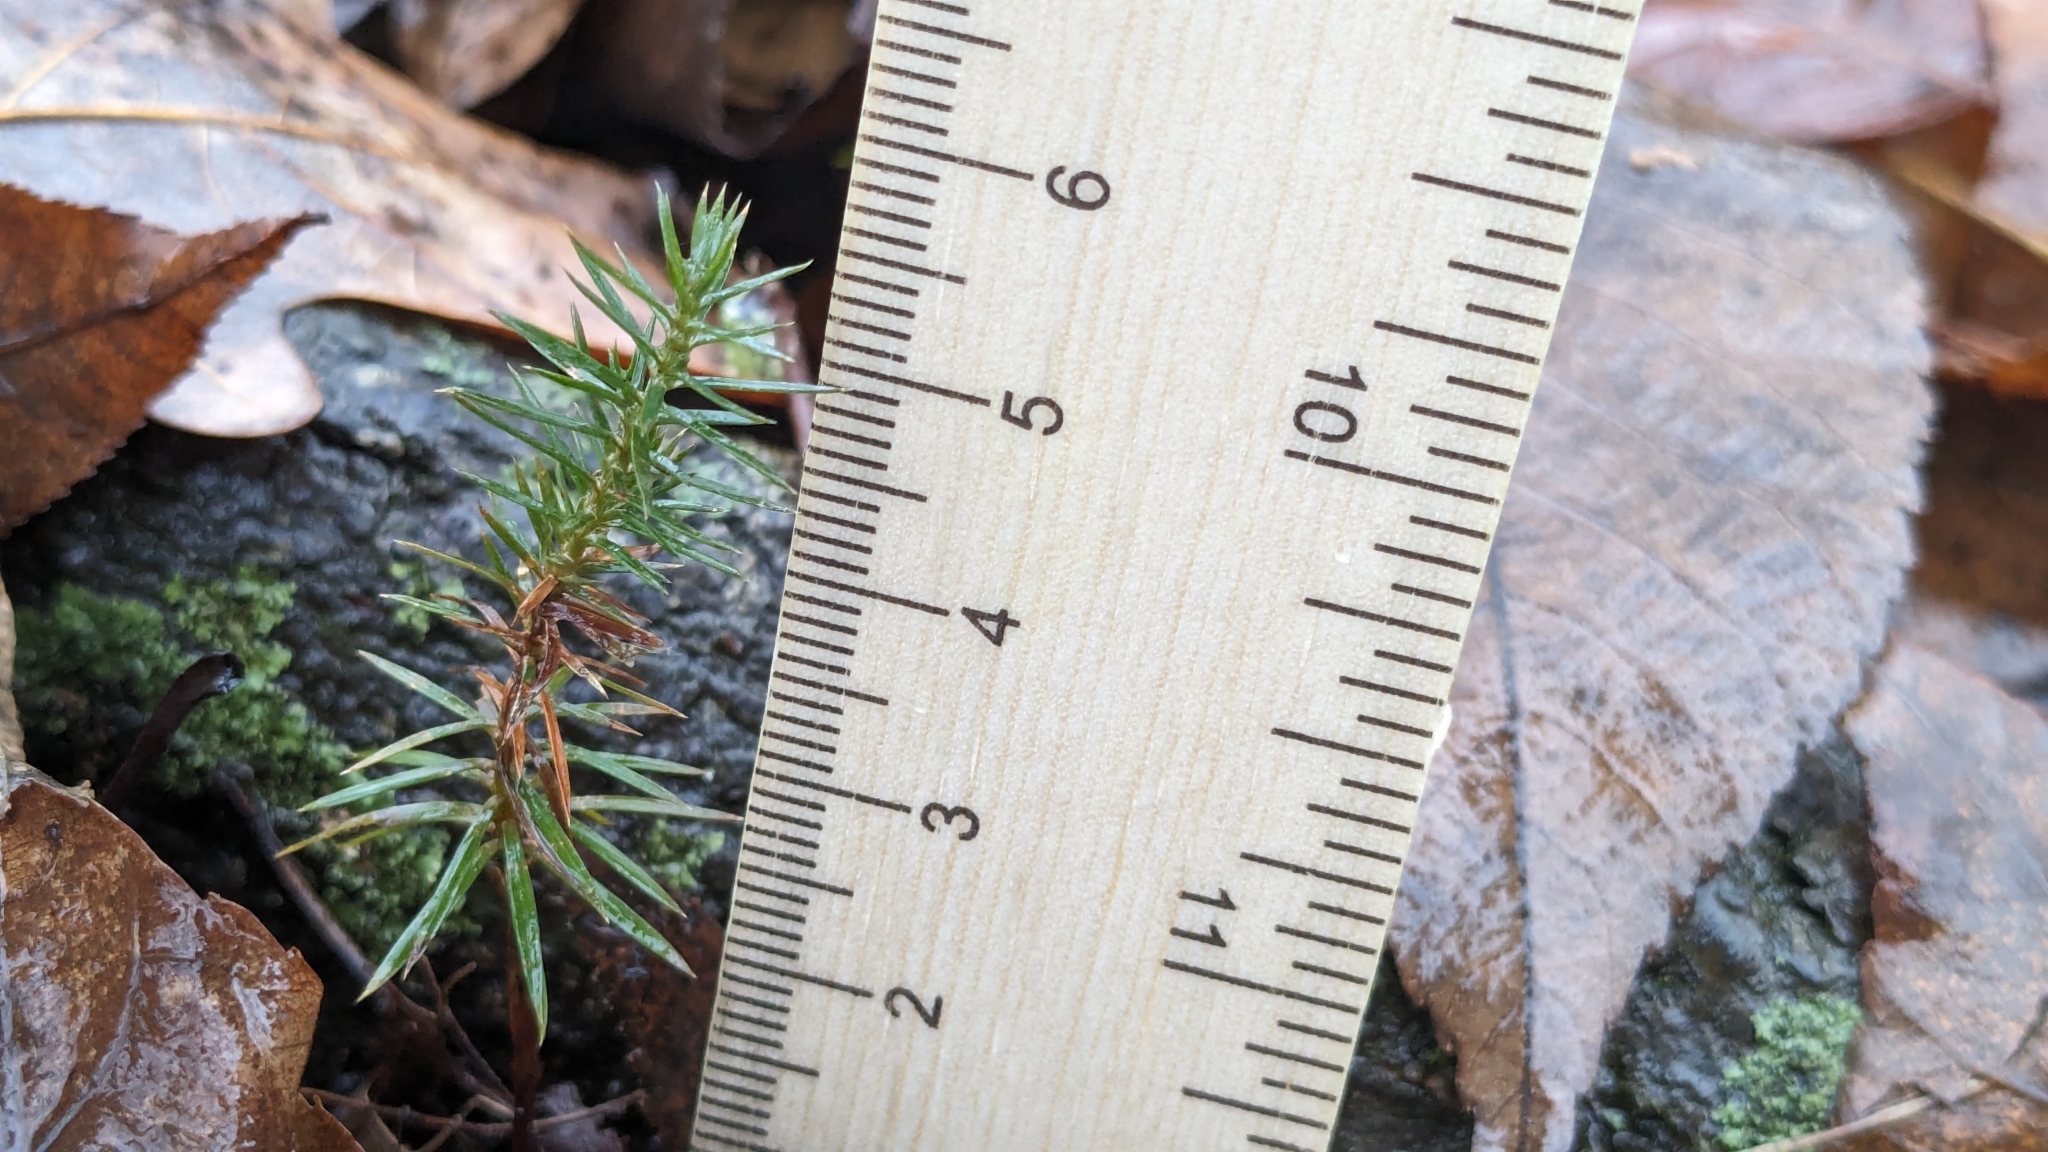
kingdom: Plantae
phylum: Tracheophyta
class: Pinopsida
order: Pinales
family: Cupressaceae
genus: Juniperus
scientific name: Juniperus virginiana
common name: Red juniper
